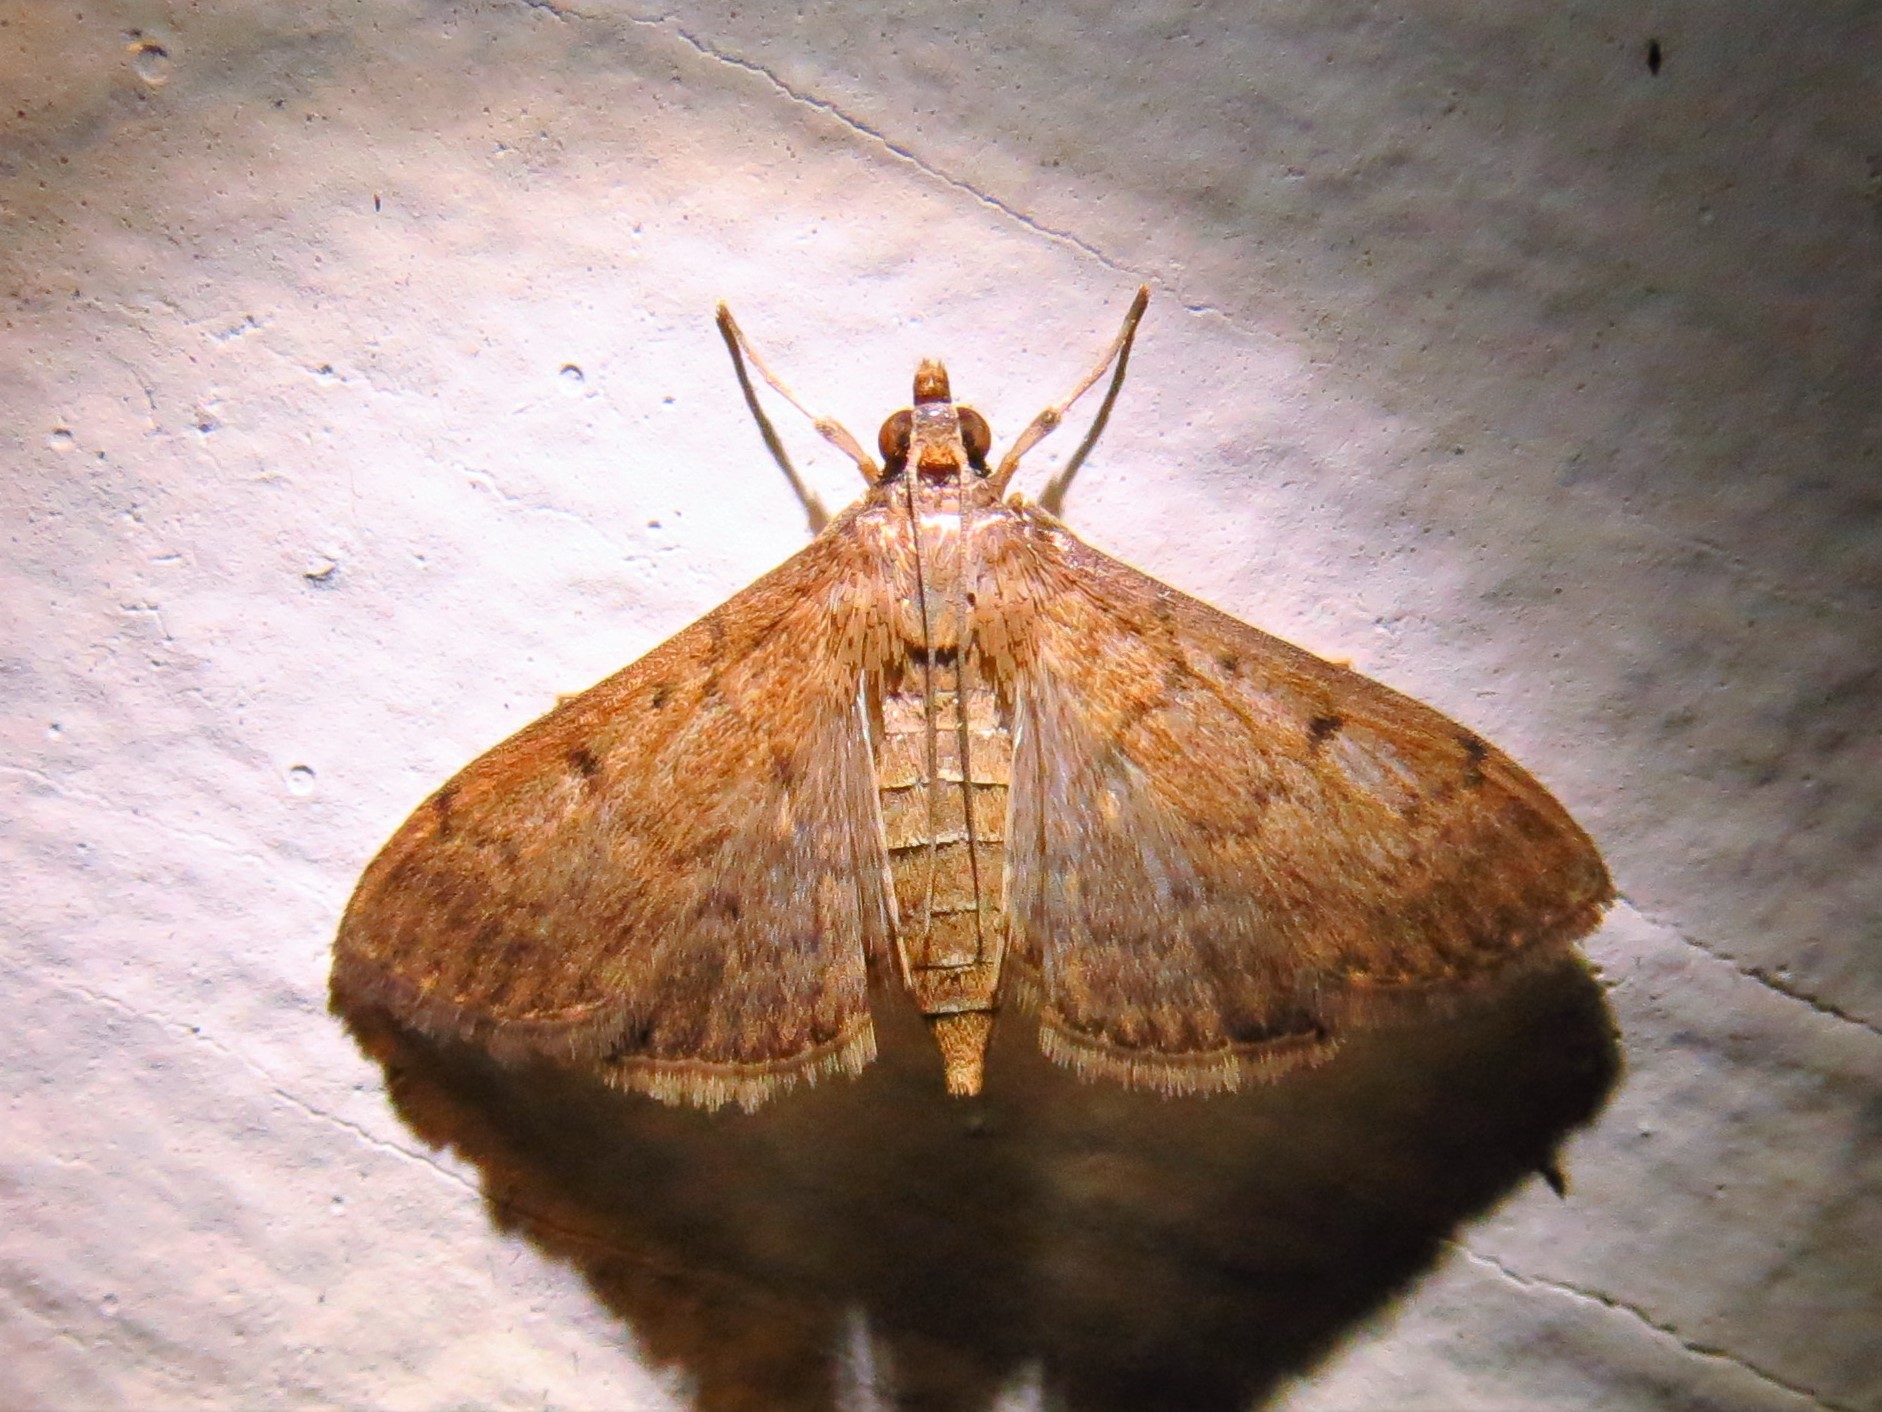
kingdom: Animalia
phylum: Arthropoda
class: Insecta
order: Lepidoptera
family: Crambidae
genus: Herpetogramma
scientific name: Herpetogramma phaeopteralis
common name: Dusky herpetogramma moth
